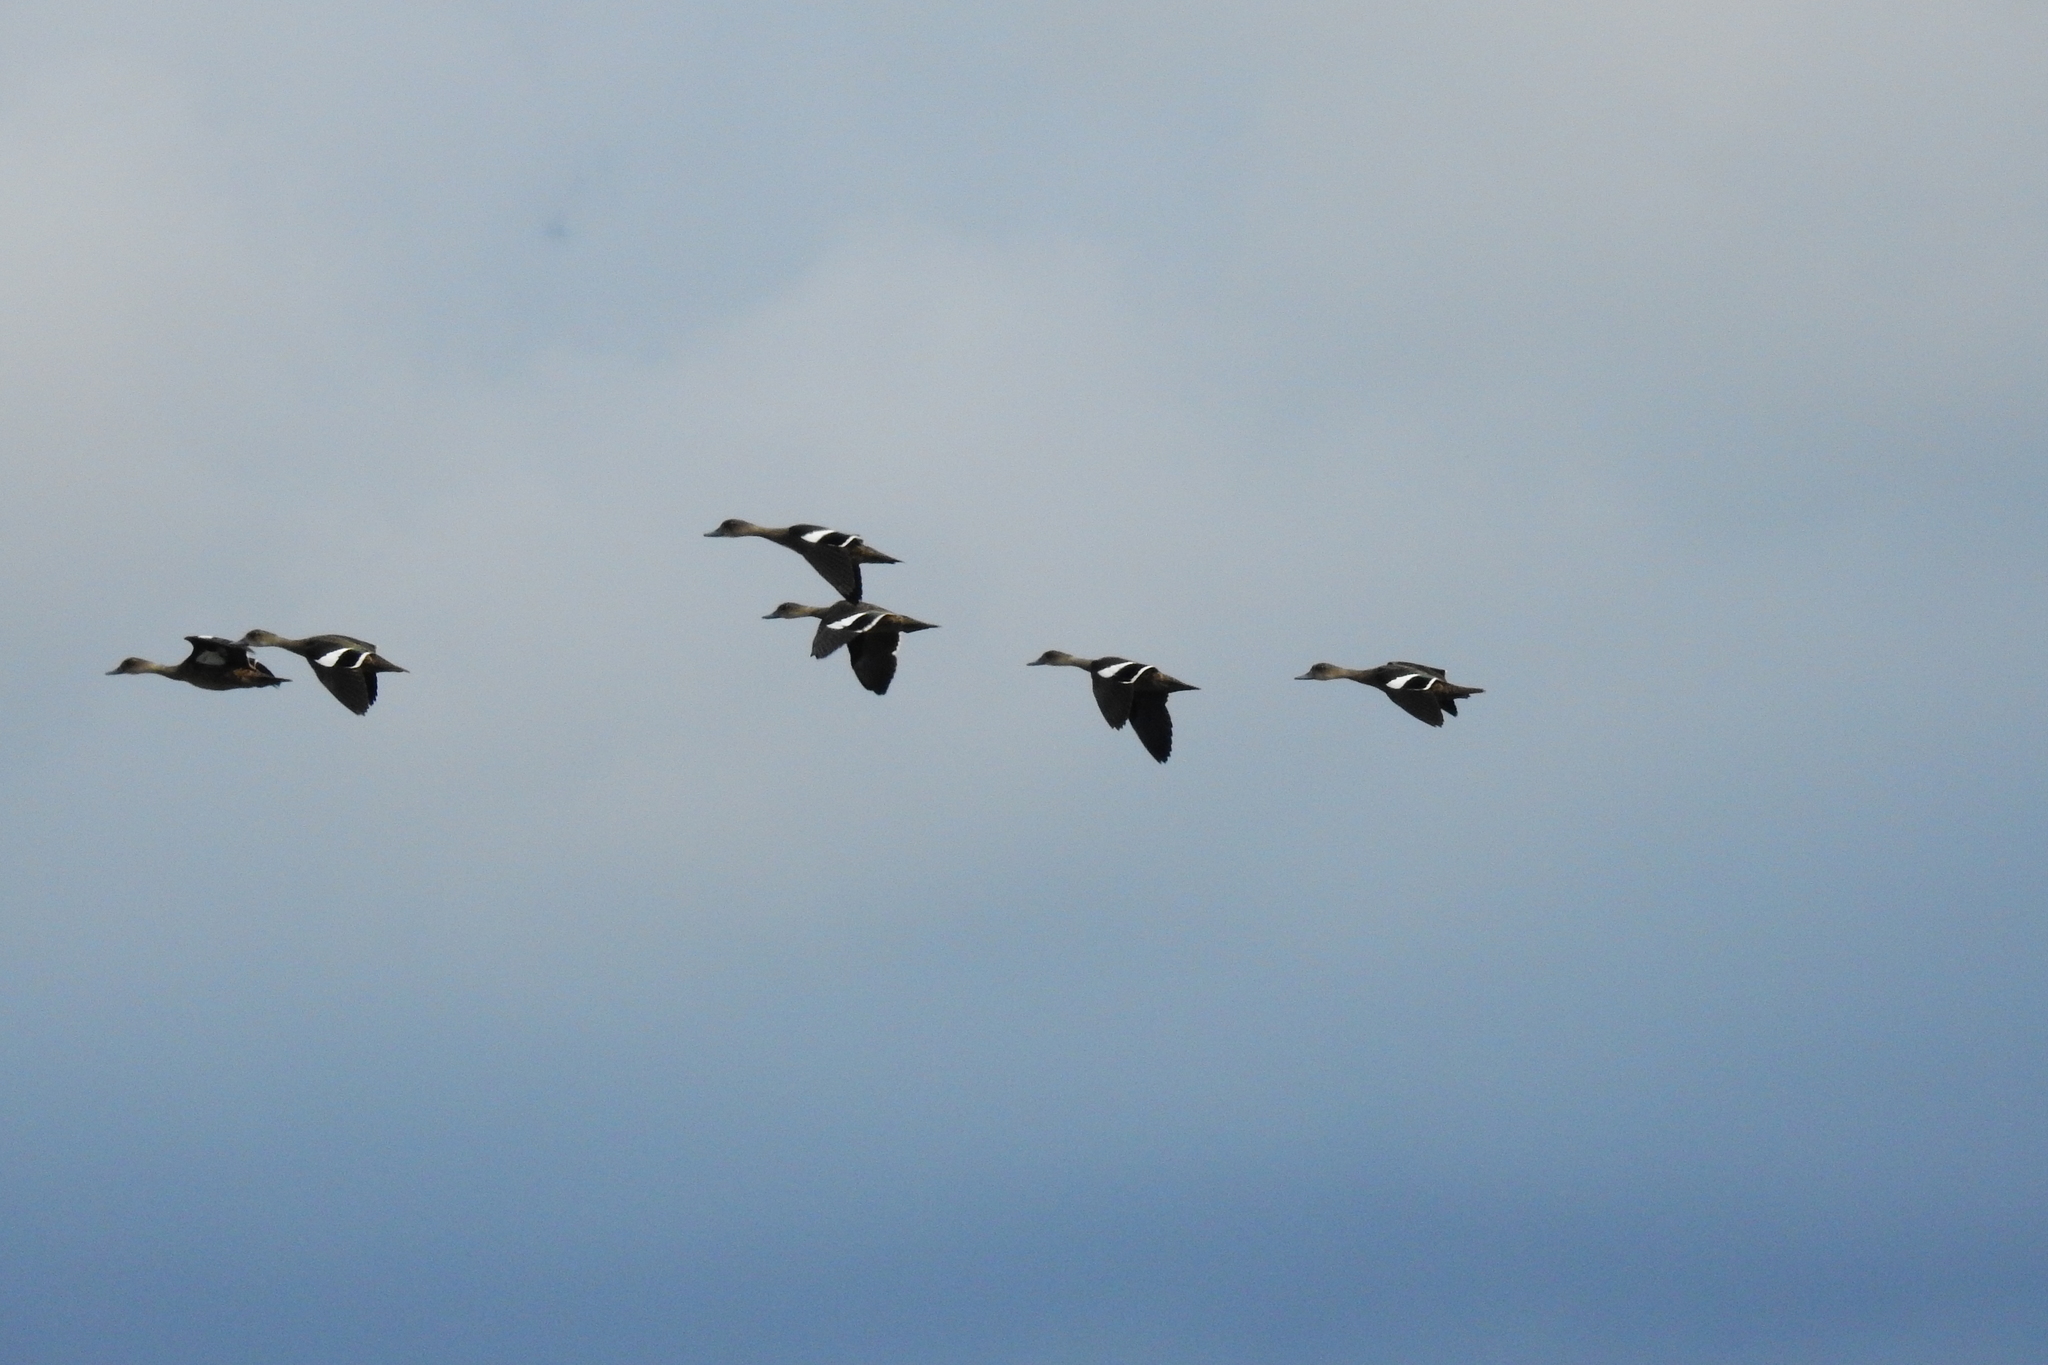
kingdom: Animalia
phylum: Chordata
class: Aves
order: Anseriformes
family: Anatidae
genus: Anas
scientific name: Anas gibberifrons
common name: Sunda teal
